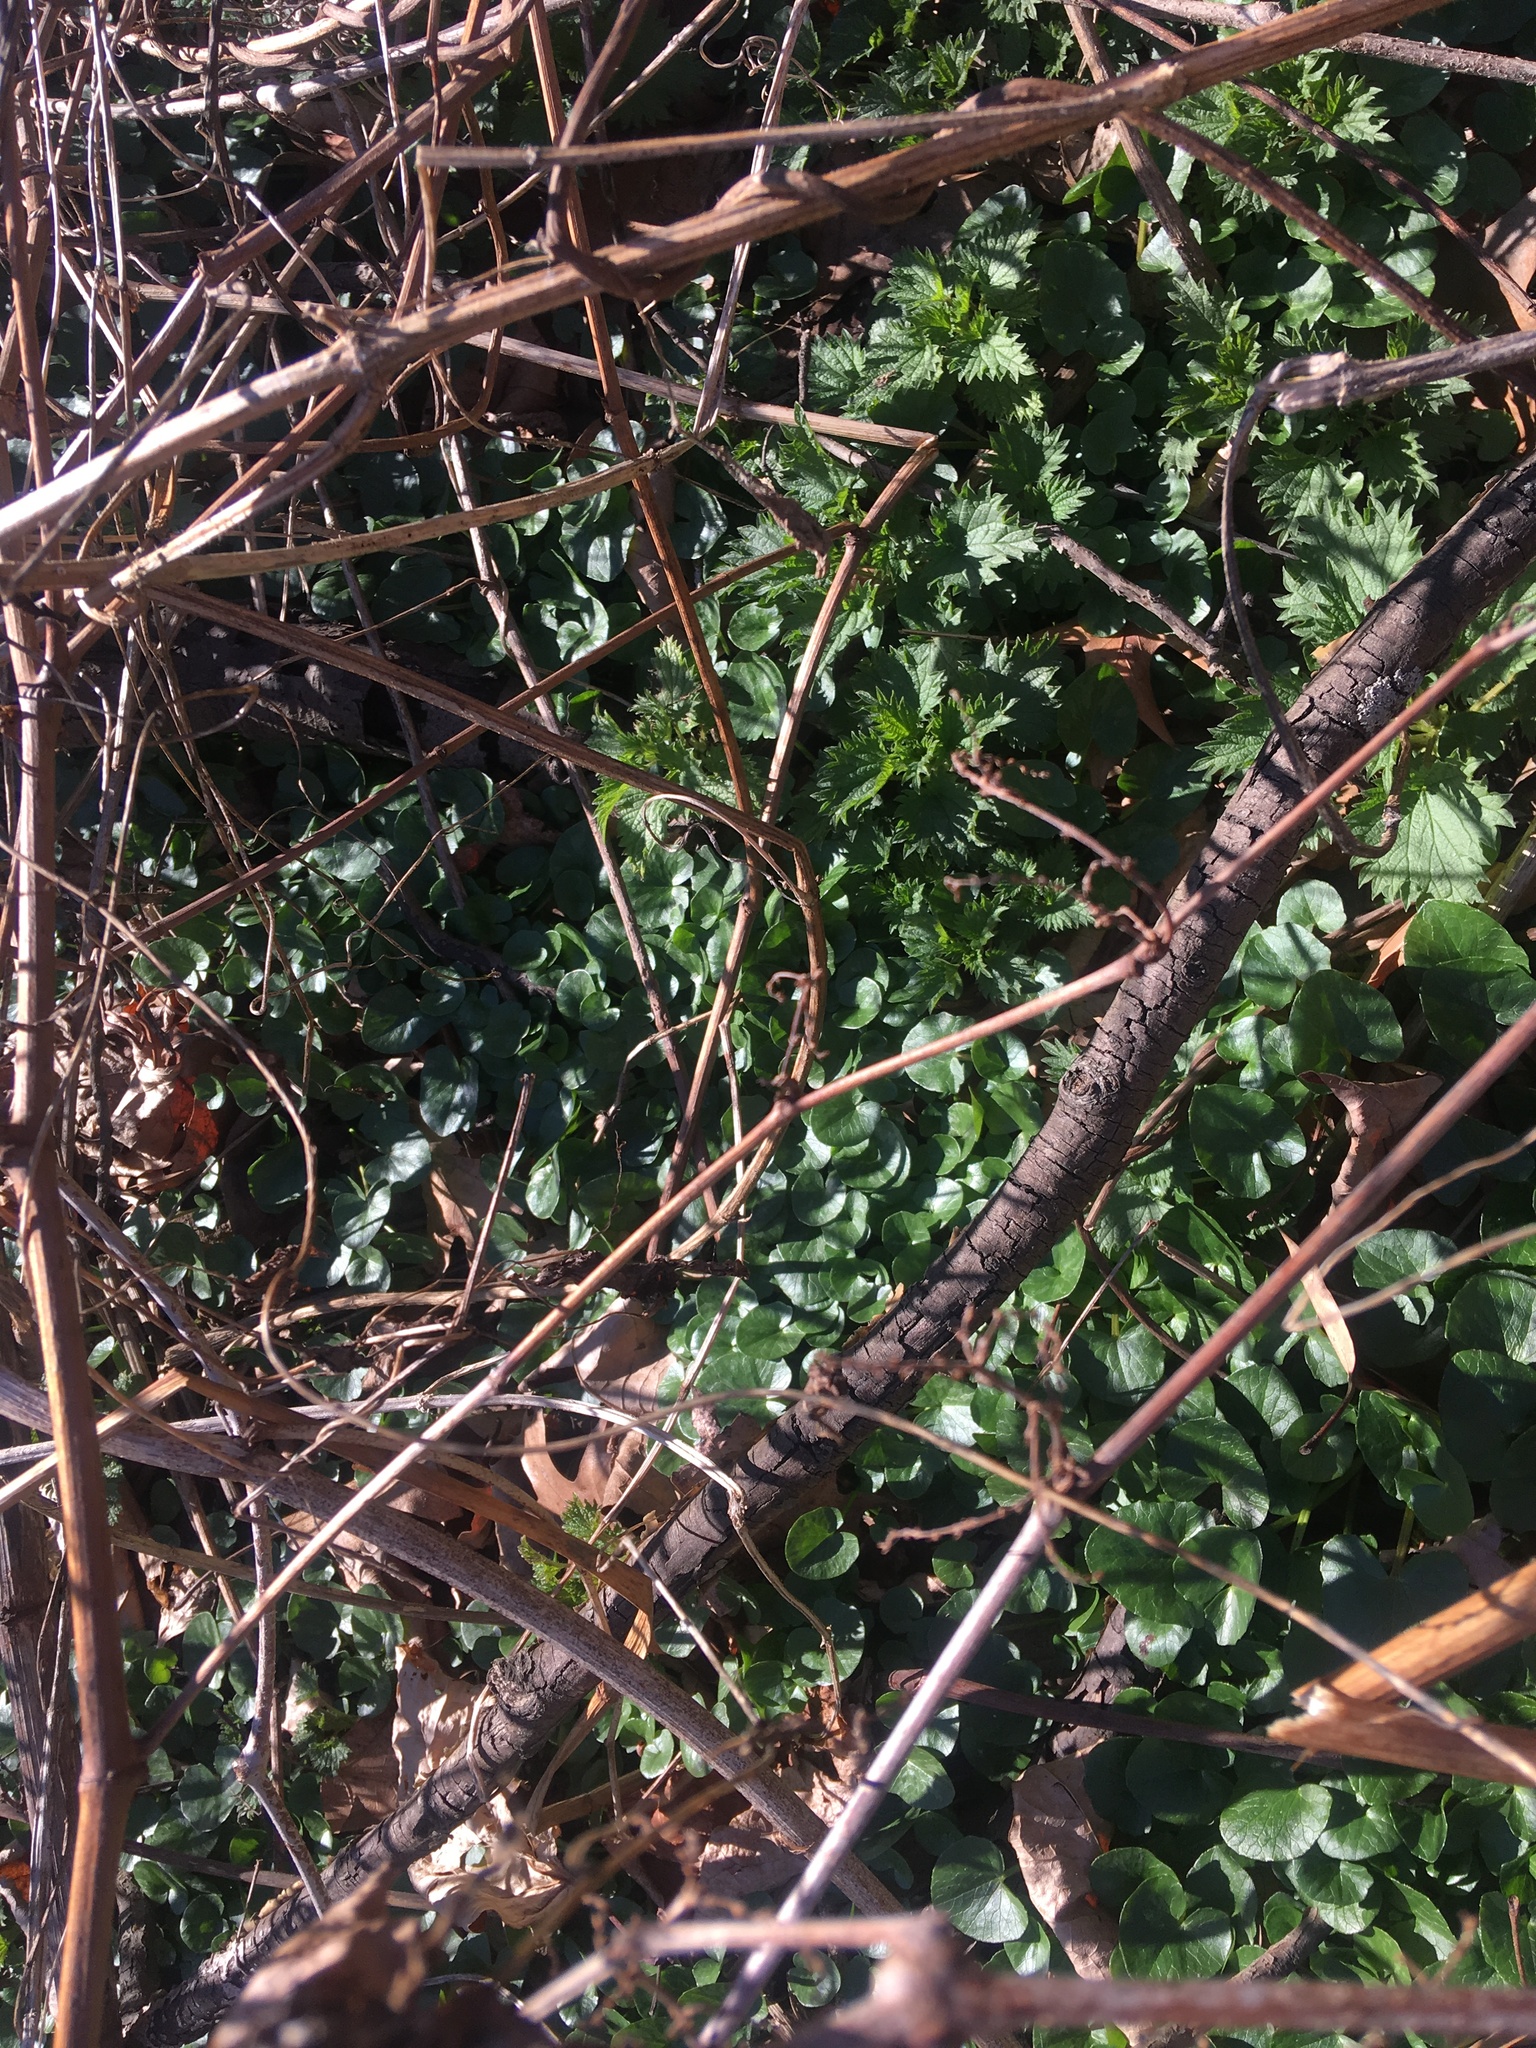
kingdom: Plantae
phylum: Tracheophyta
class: Magnoliopsida
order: Ranunculales
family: Ranunculaceae
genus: Ficaria
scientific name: Ficaria verna
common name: Lesser celandine
